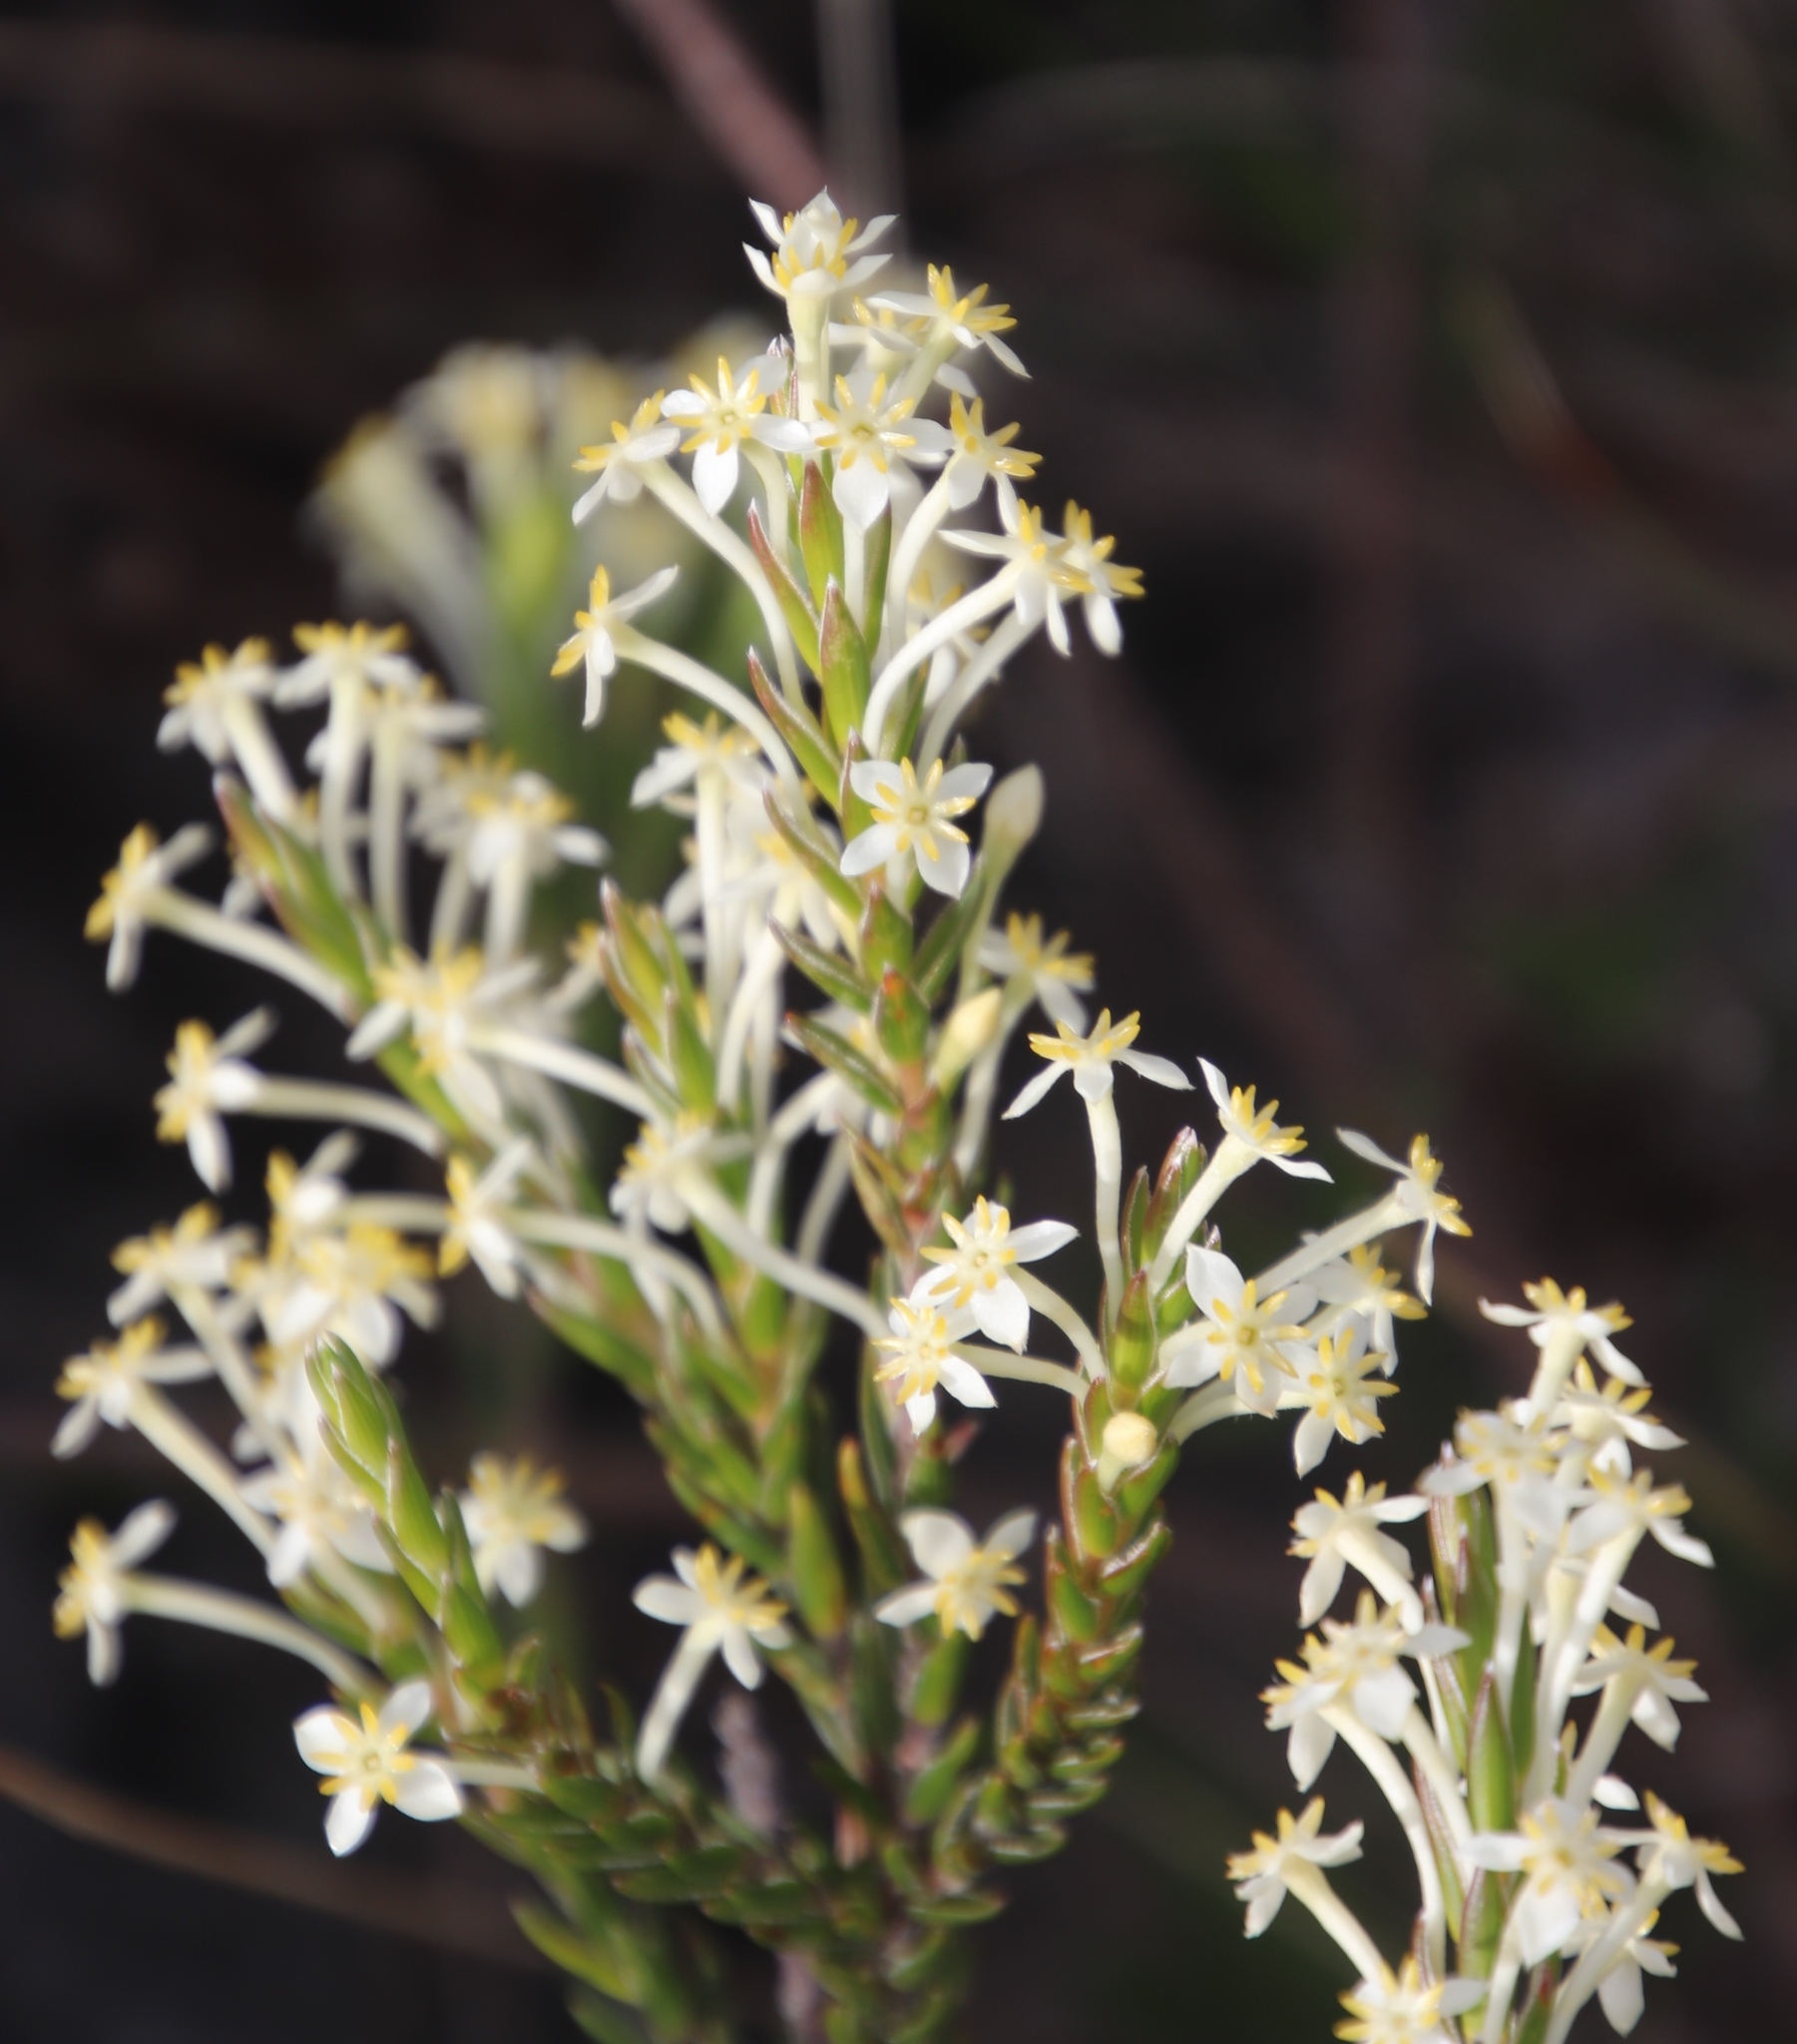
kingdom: Plantae
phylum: Tracheophyta
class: Magnoliopsida
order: Malvales
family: Thymelaeaceae
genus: Struthiola
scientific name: Struthiola ciliata
